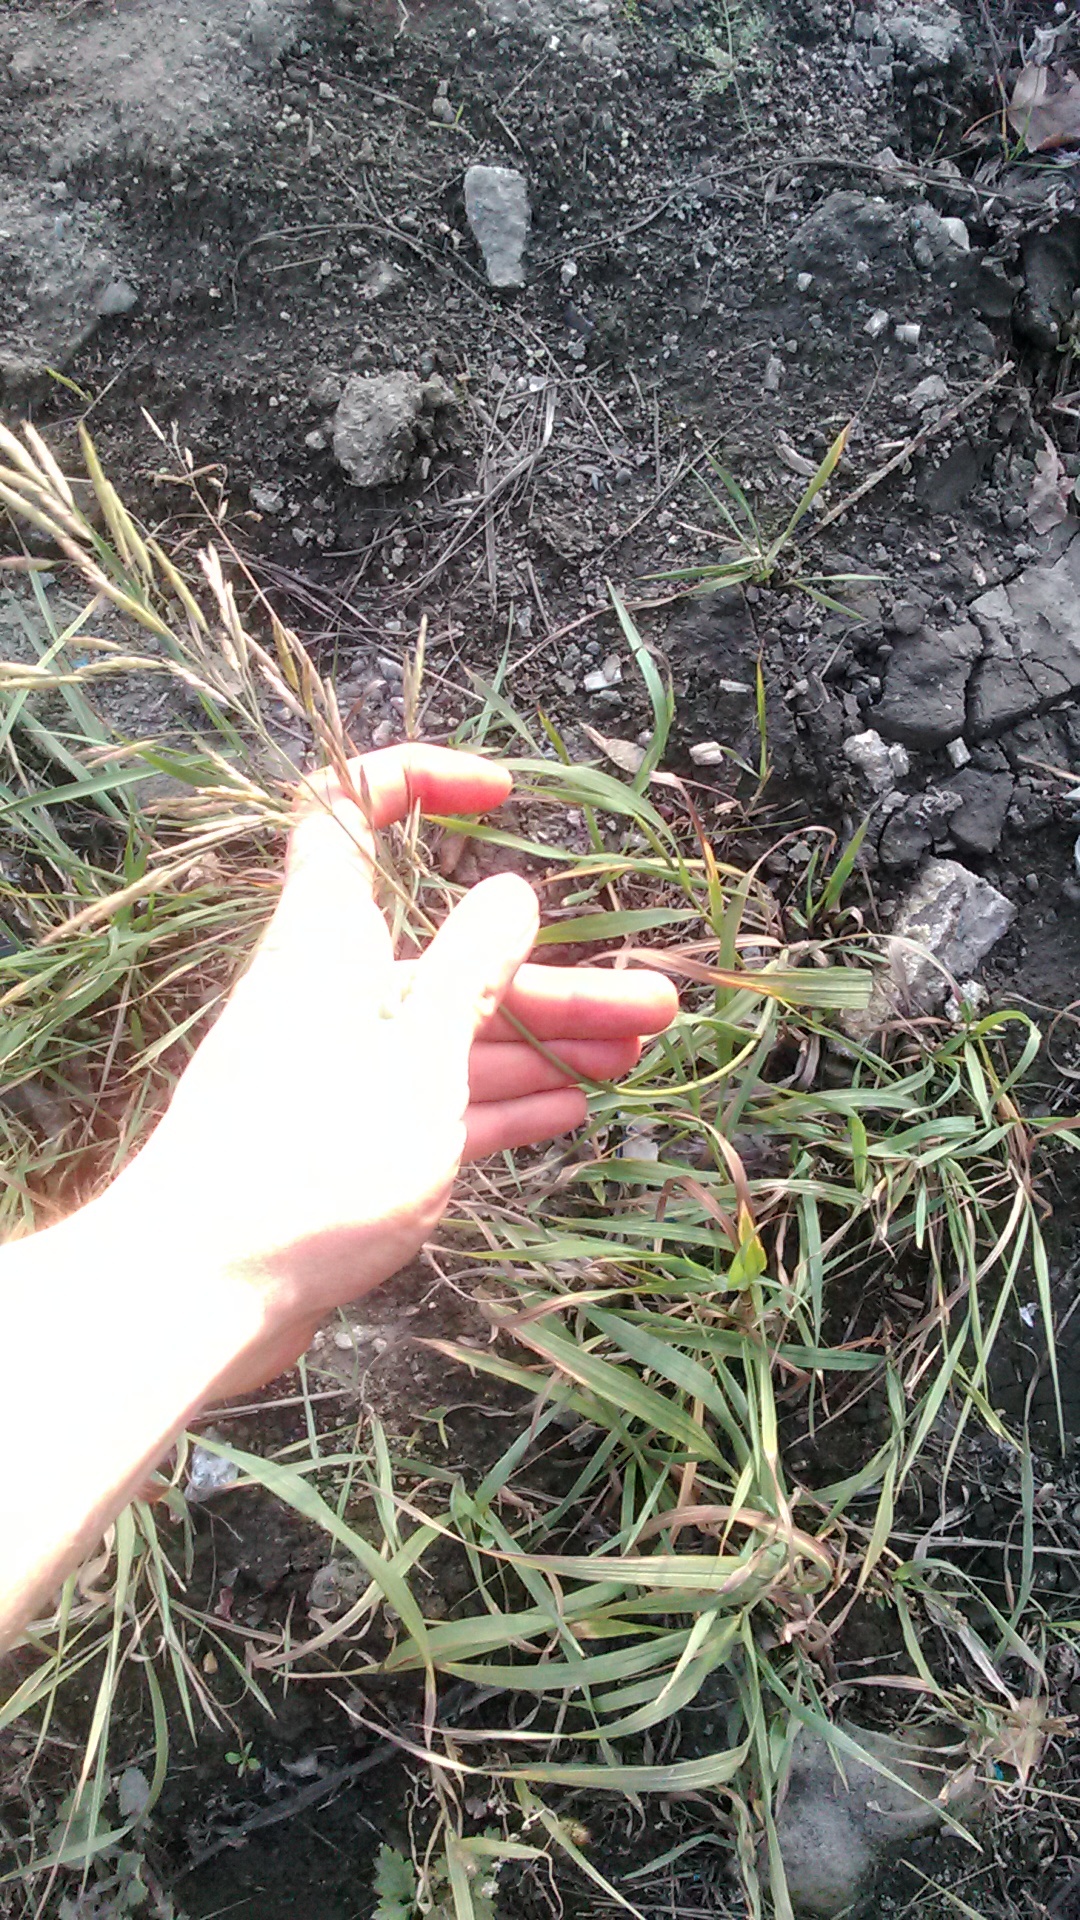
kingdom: Plantae
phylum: Tracheophyta
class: Liliopsida
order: Poales
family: Poaceae
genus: Bromus
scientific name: Bromus inermis
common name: Smooth brome
